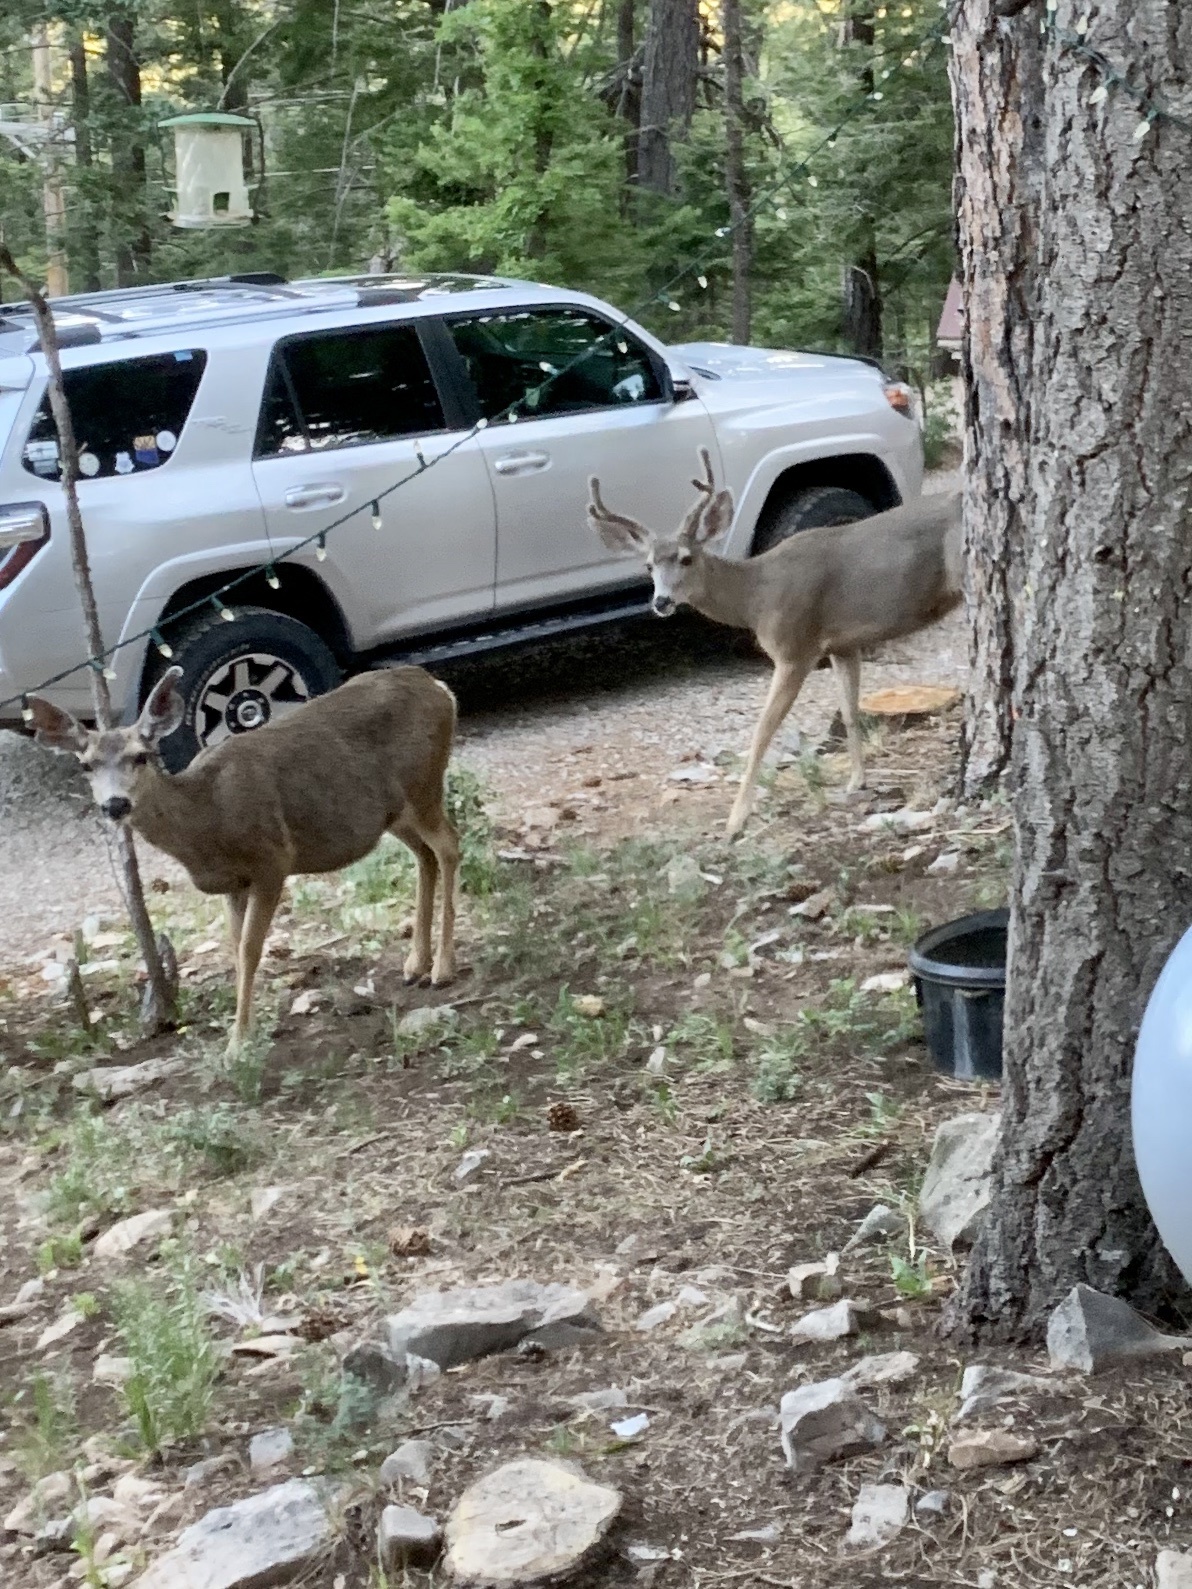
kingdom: Animalia
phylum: Chordata
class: Mammalia
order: Artiodactyla
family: Cervidae
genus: Odocoileus
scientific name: Odocoileus hemionus
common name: Mule deer
